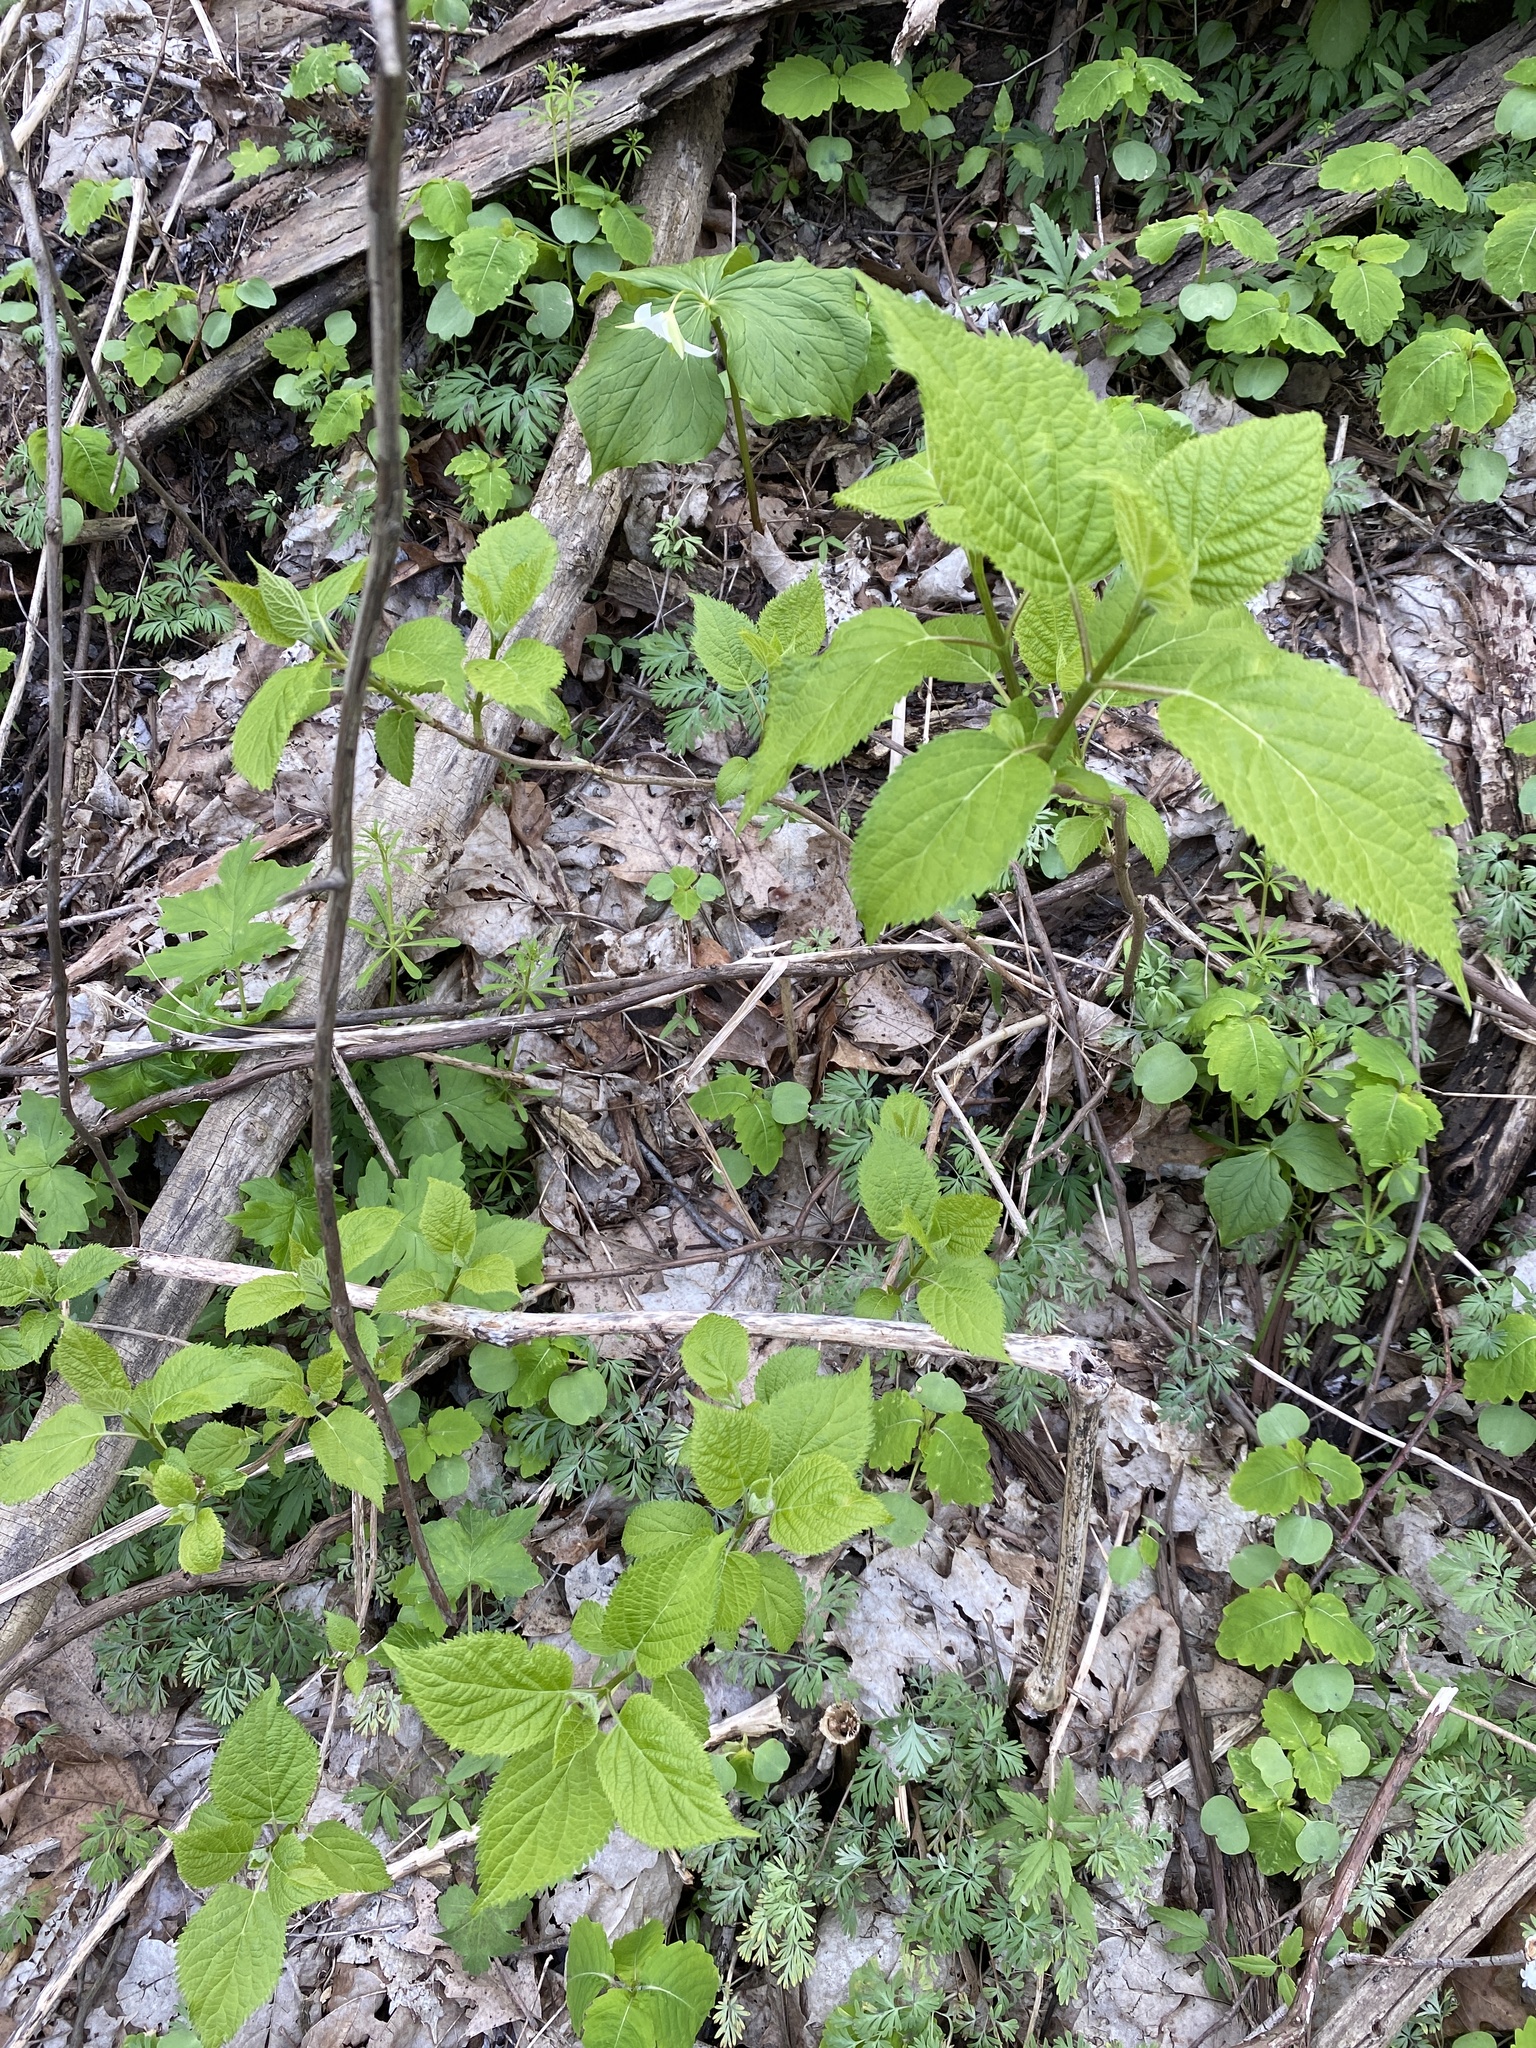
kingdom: Plantae
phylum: Tracheophyta
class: Magnoliopsida
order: Cornales
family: Hydrangeaceae
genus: Hydrangea
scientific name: Hydrangea arborescens
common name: Sevenbark
